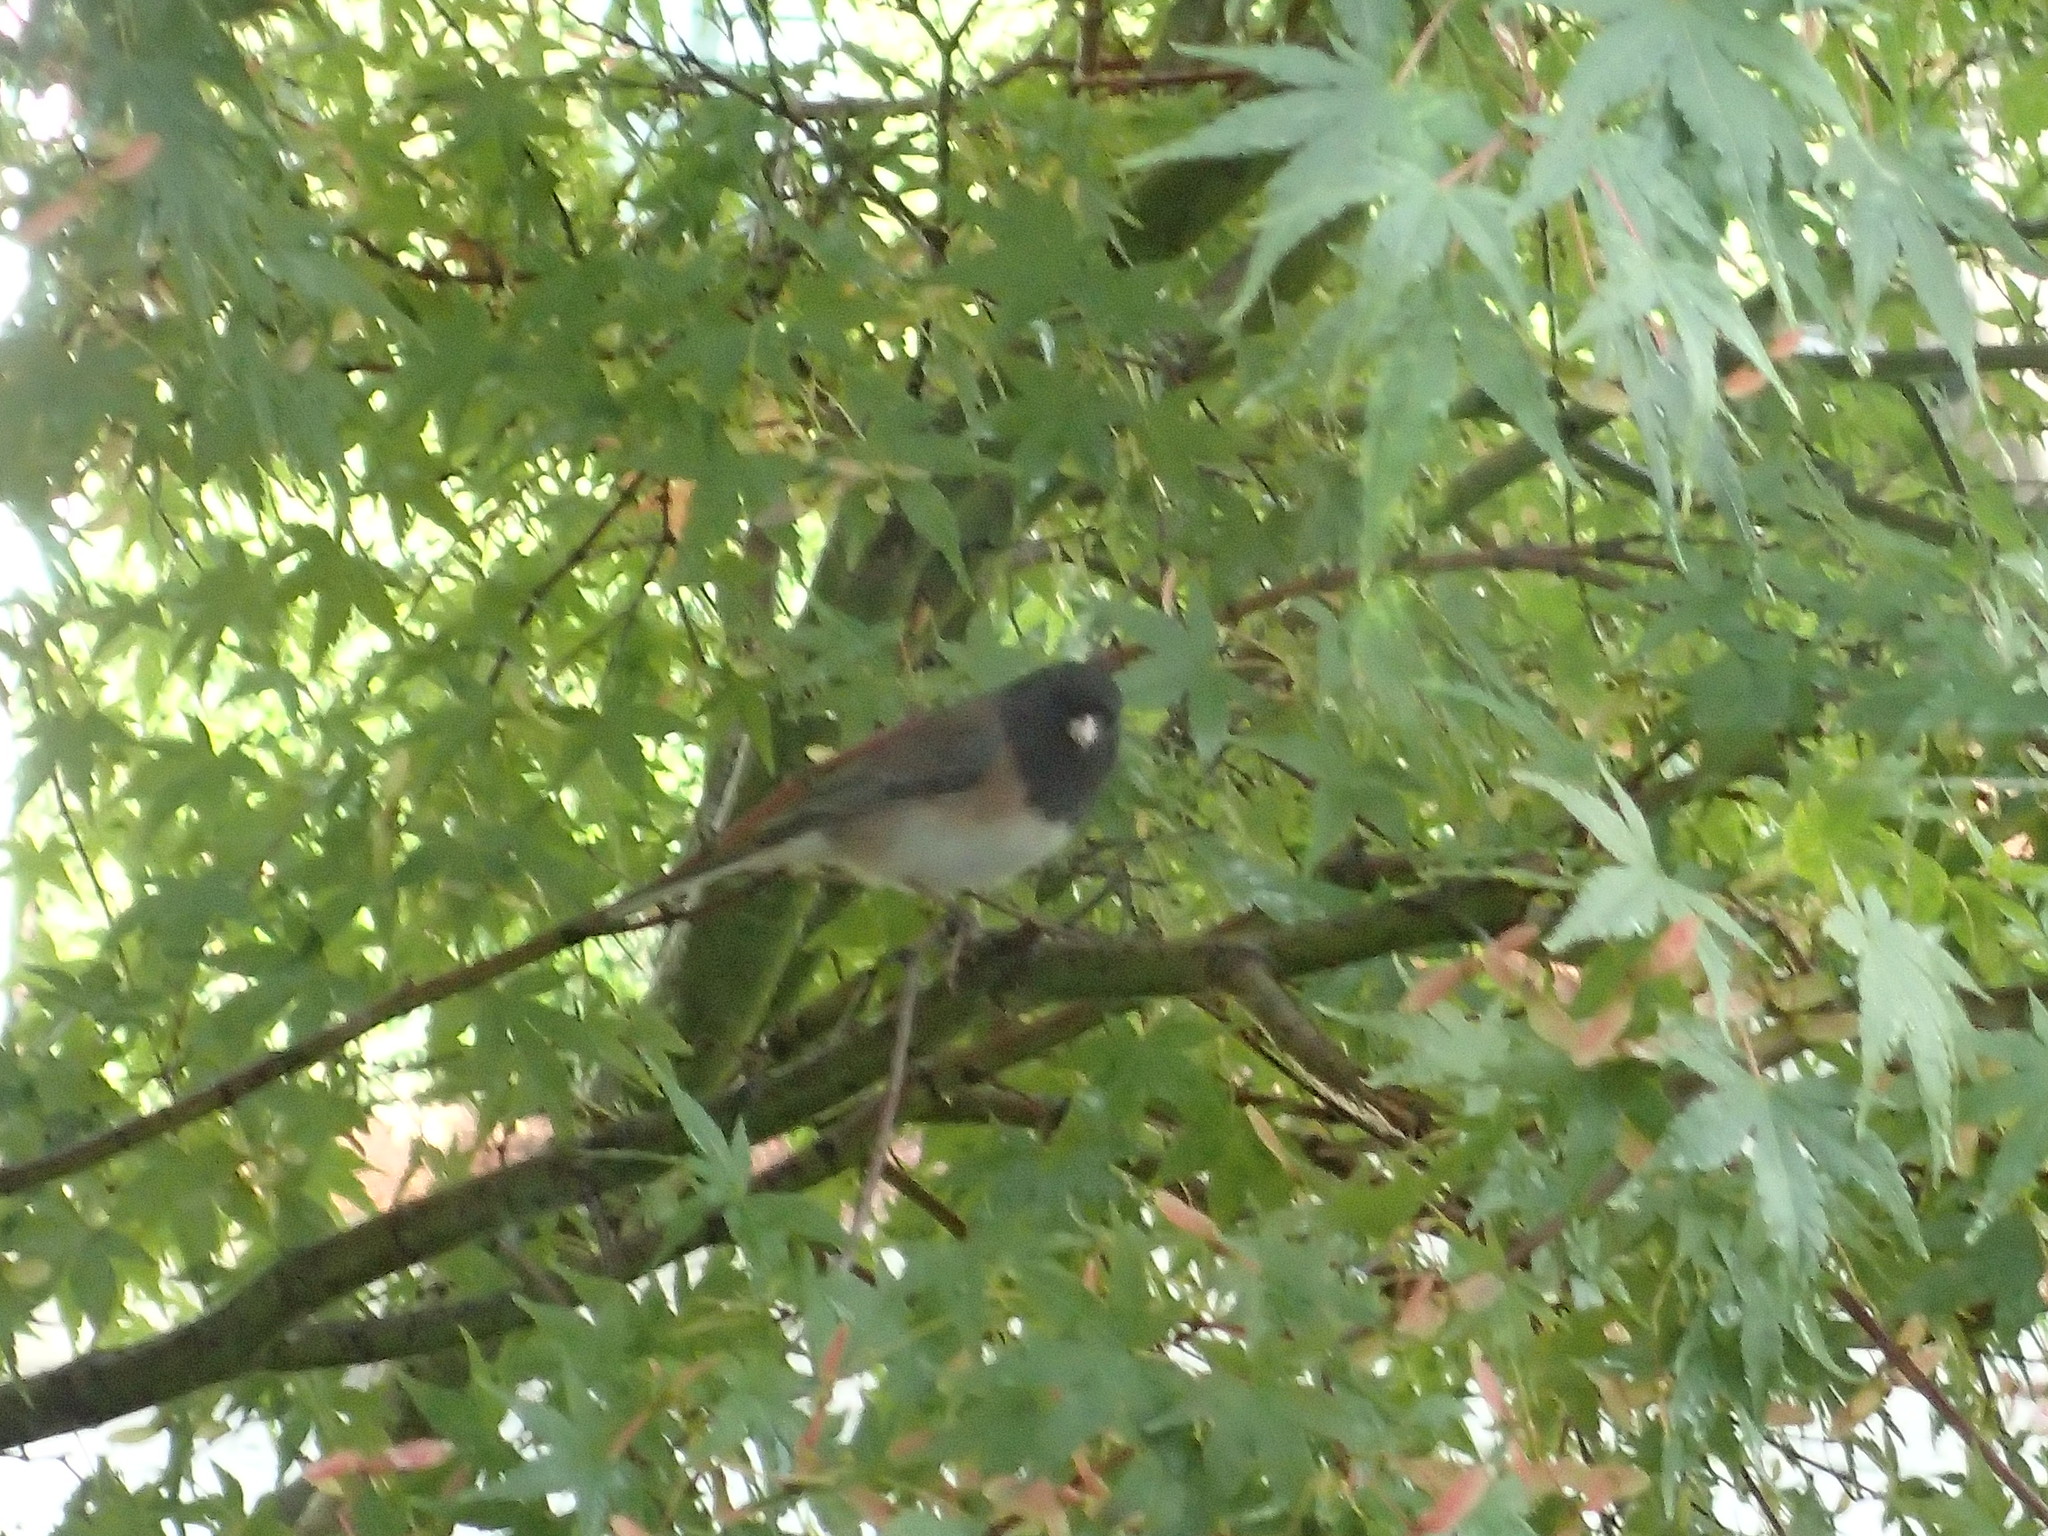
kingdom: Animalia
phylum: Chordata
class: Aves
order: Passeriformes
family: Passerellidae
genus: Junco
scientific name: Junco hyemalis
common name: Dark-eyed junco
